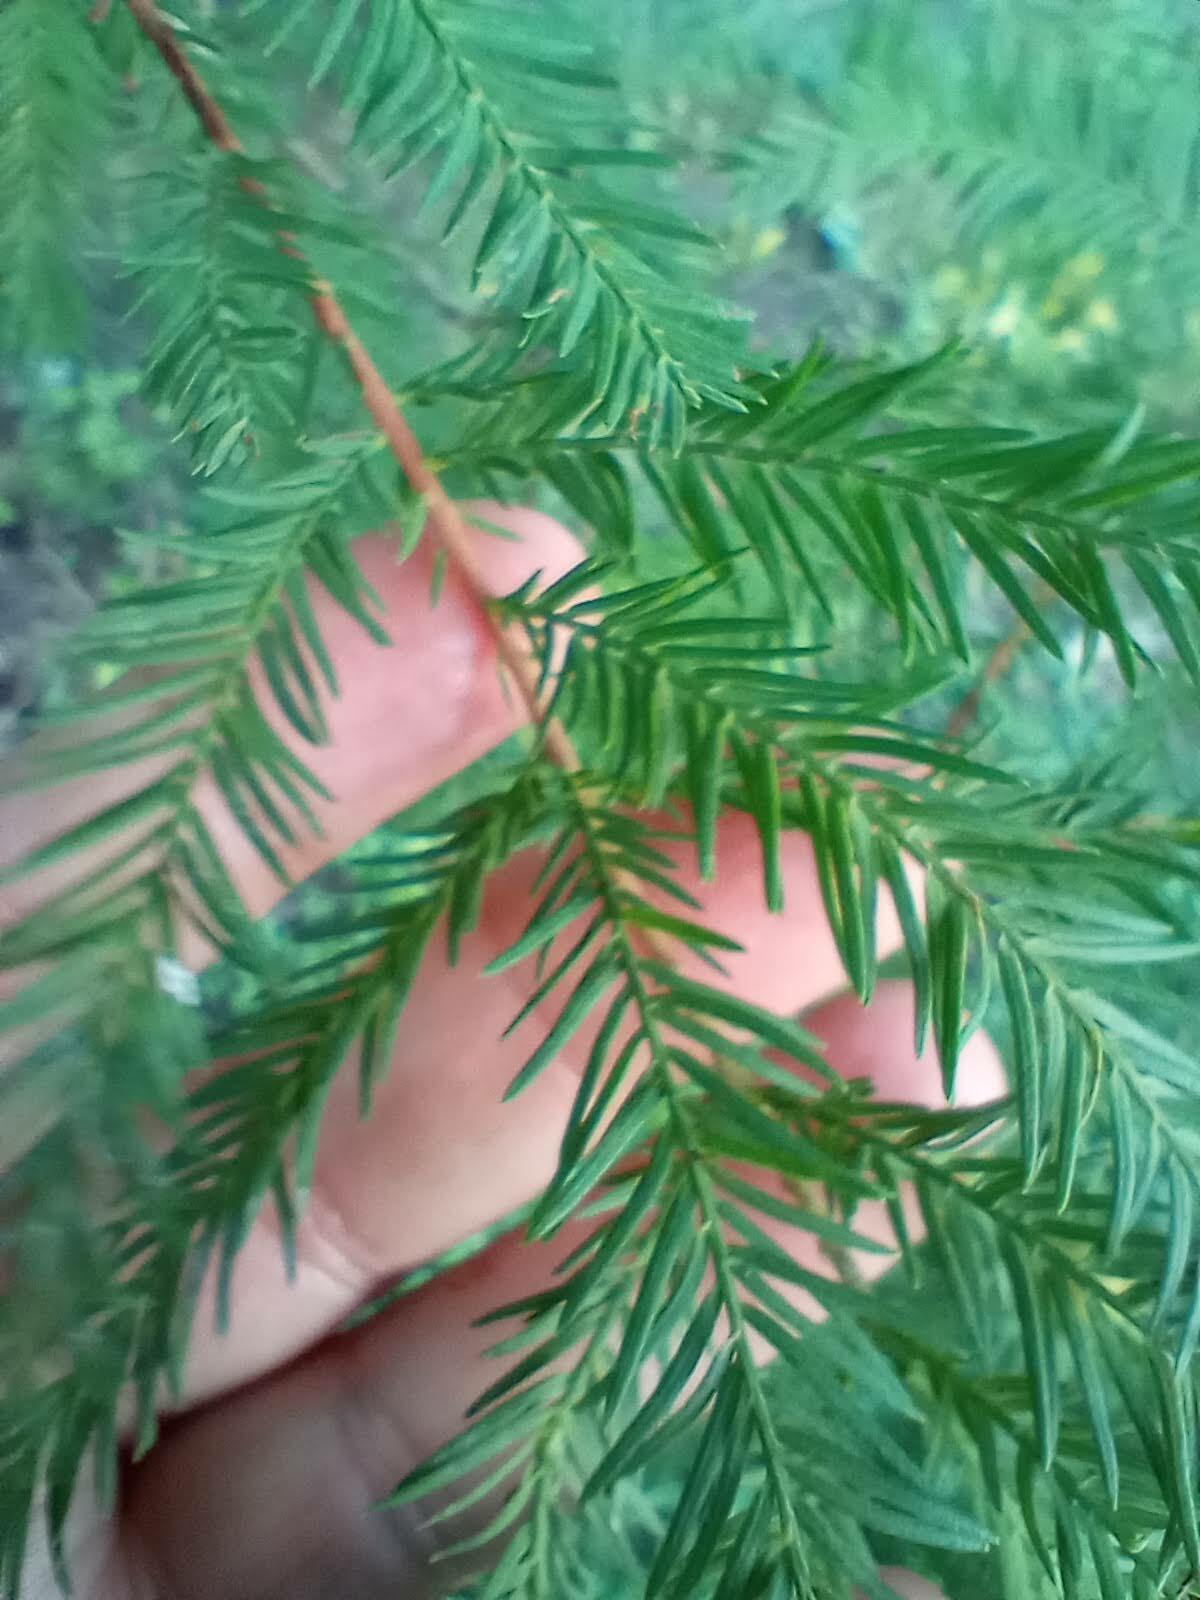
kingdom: Plantae
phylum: Tracheophyta
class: Pinopsida
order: Pinales
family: Cupressaceae
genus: Taxodium
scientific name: Taxodium distichum
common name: Bald cypress
